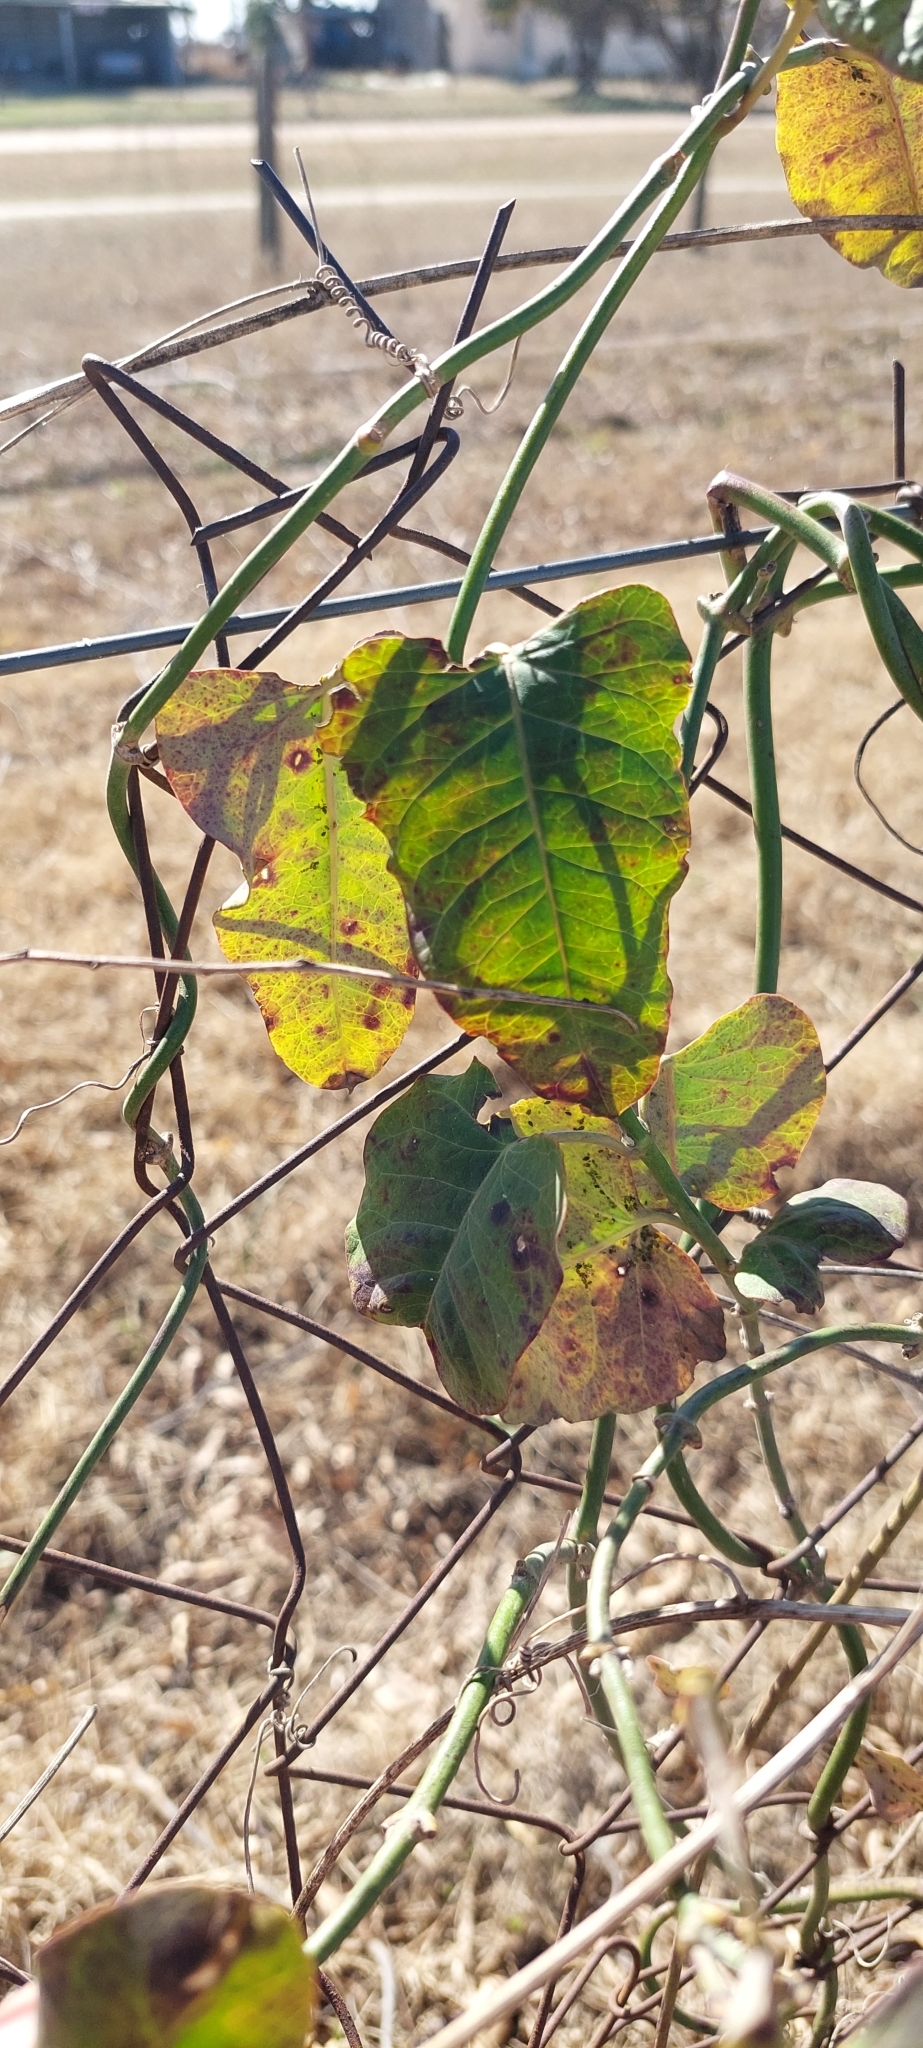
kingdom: Plantae
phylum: Tracheophyta
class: Magnoliopsida
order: Gentianales
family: Apocynaceae
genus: Araujia
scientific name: Araujia odorata
